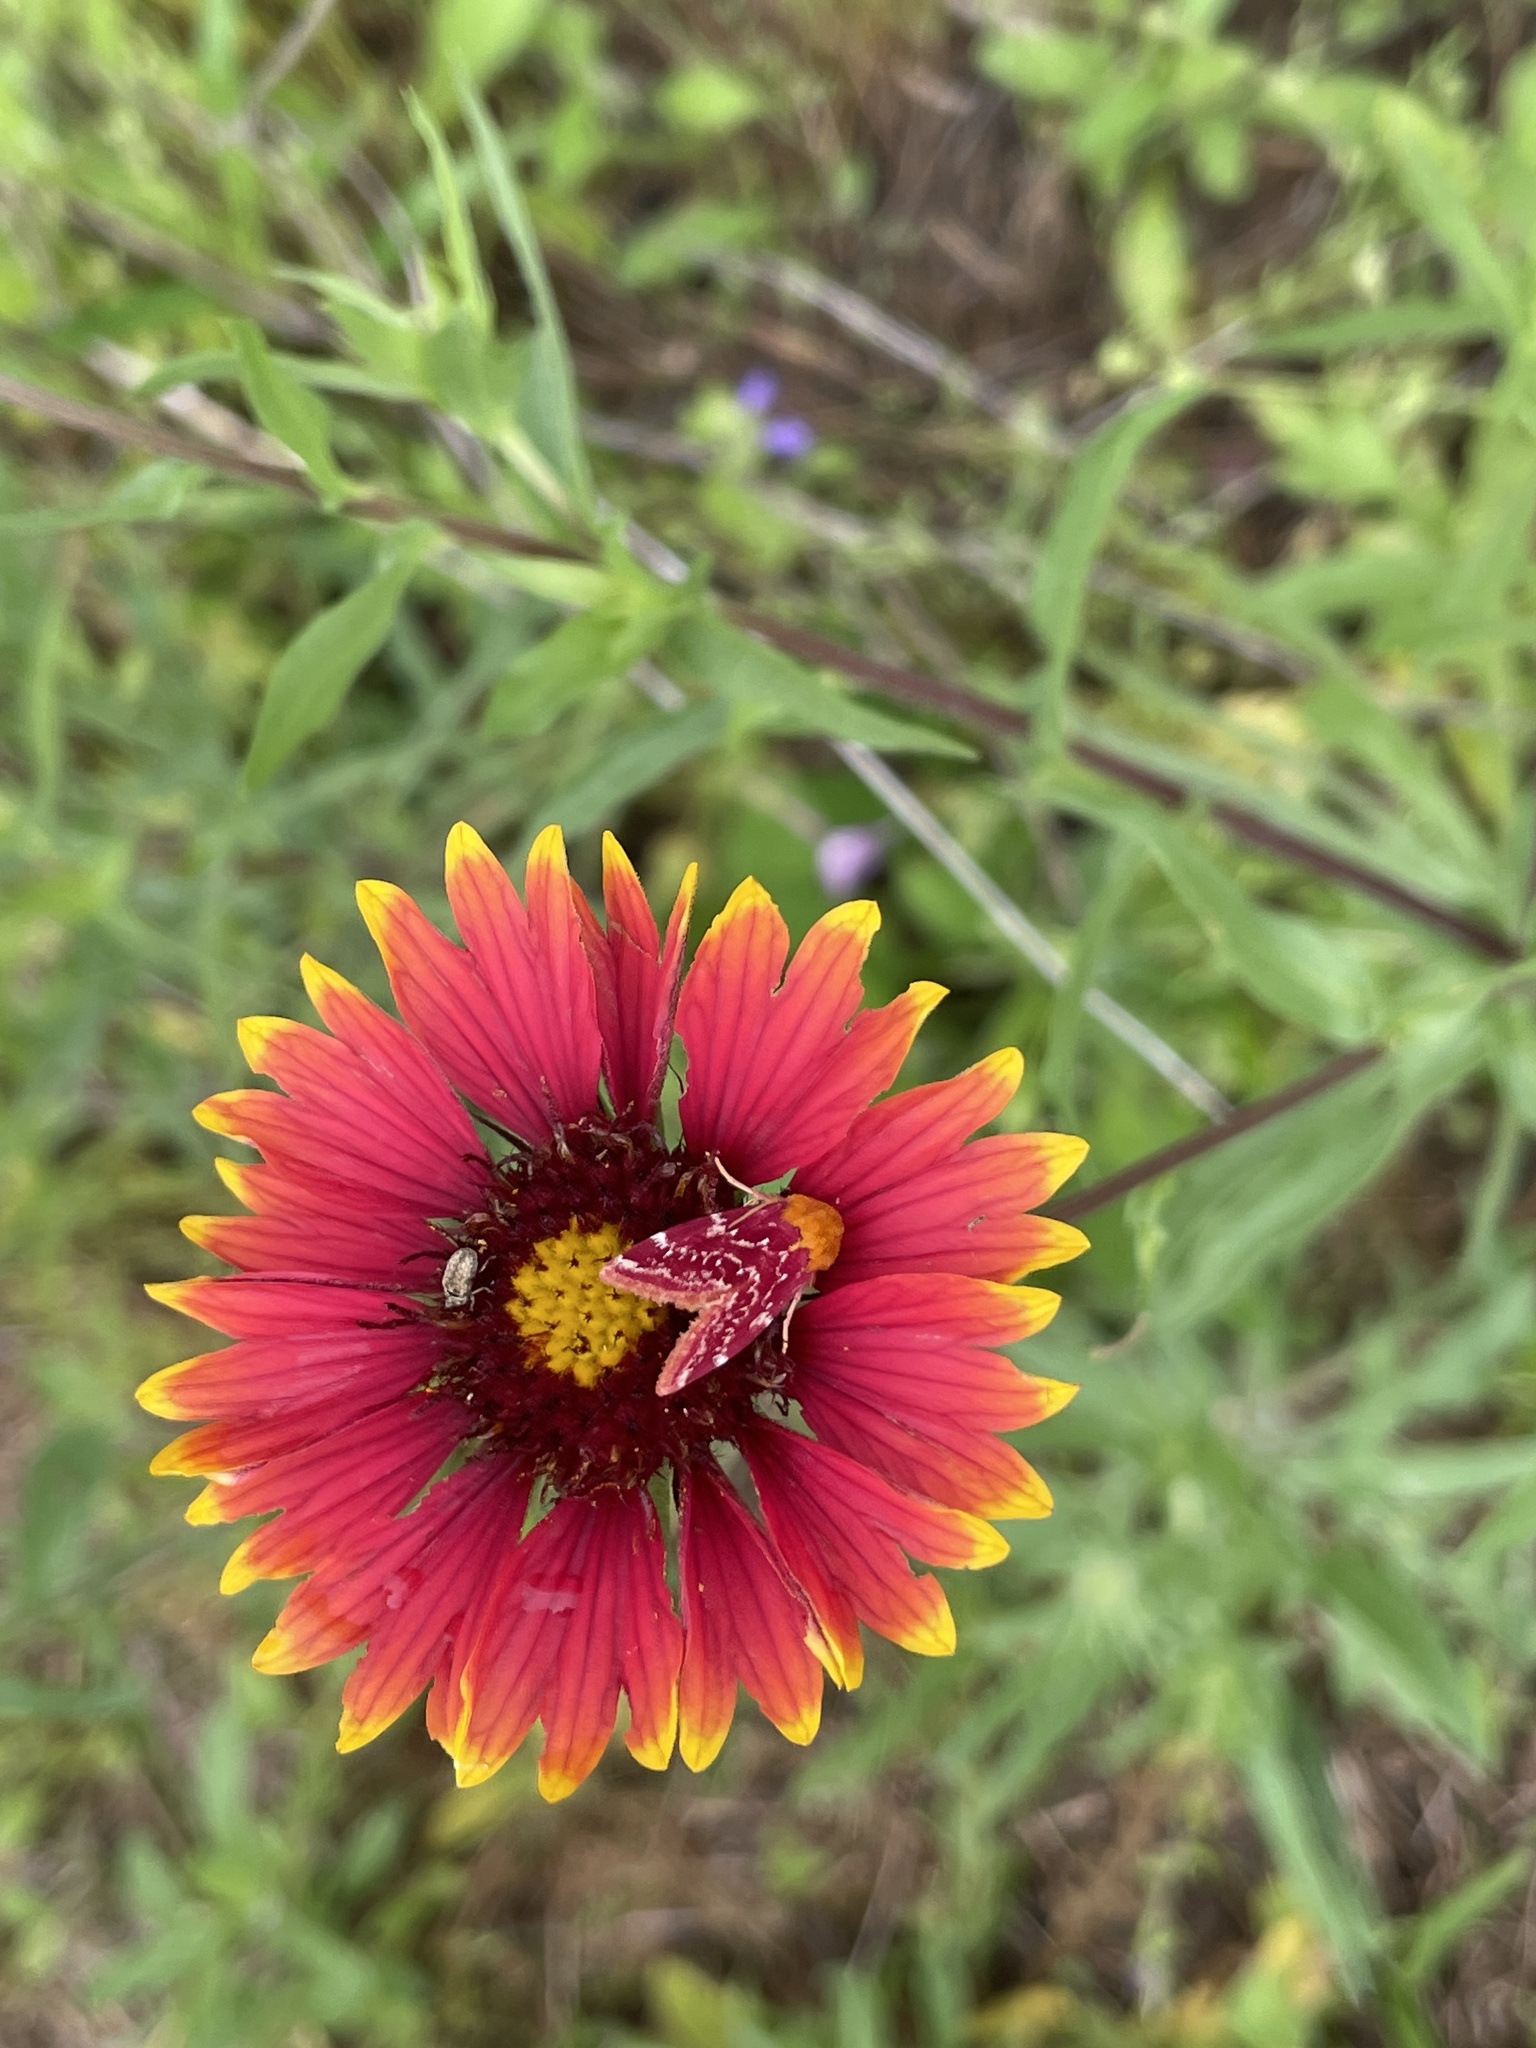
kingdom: Animalia
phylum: Arthropoda
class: Insecta
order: Lepidoptera
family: Noctuidae
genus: Schinia
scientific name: Schinia volupia
